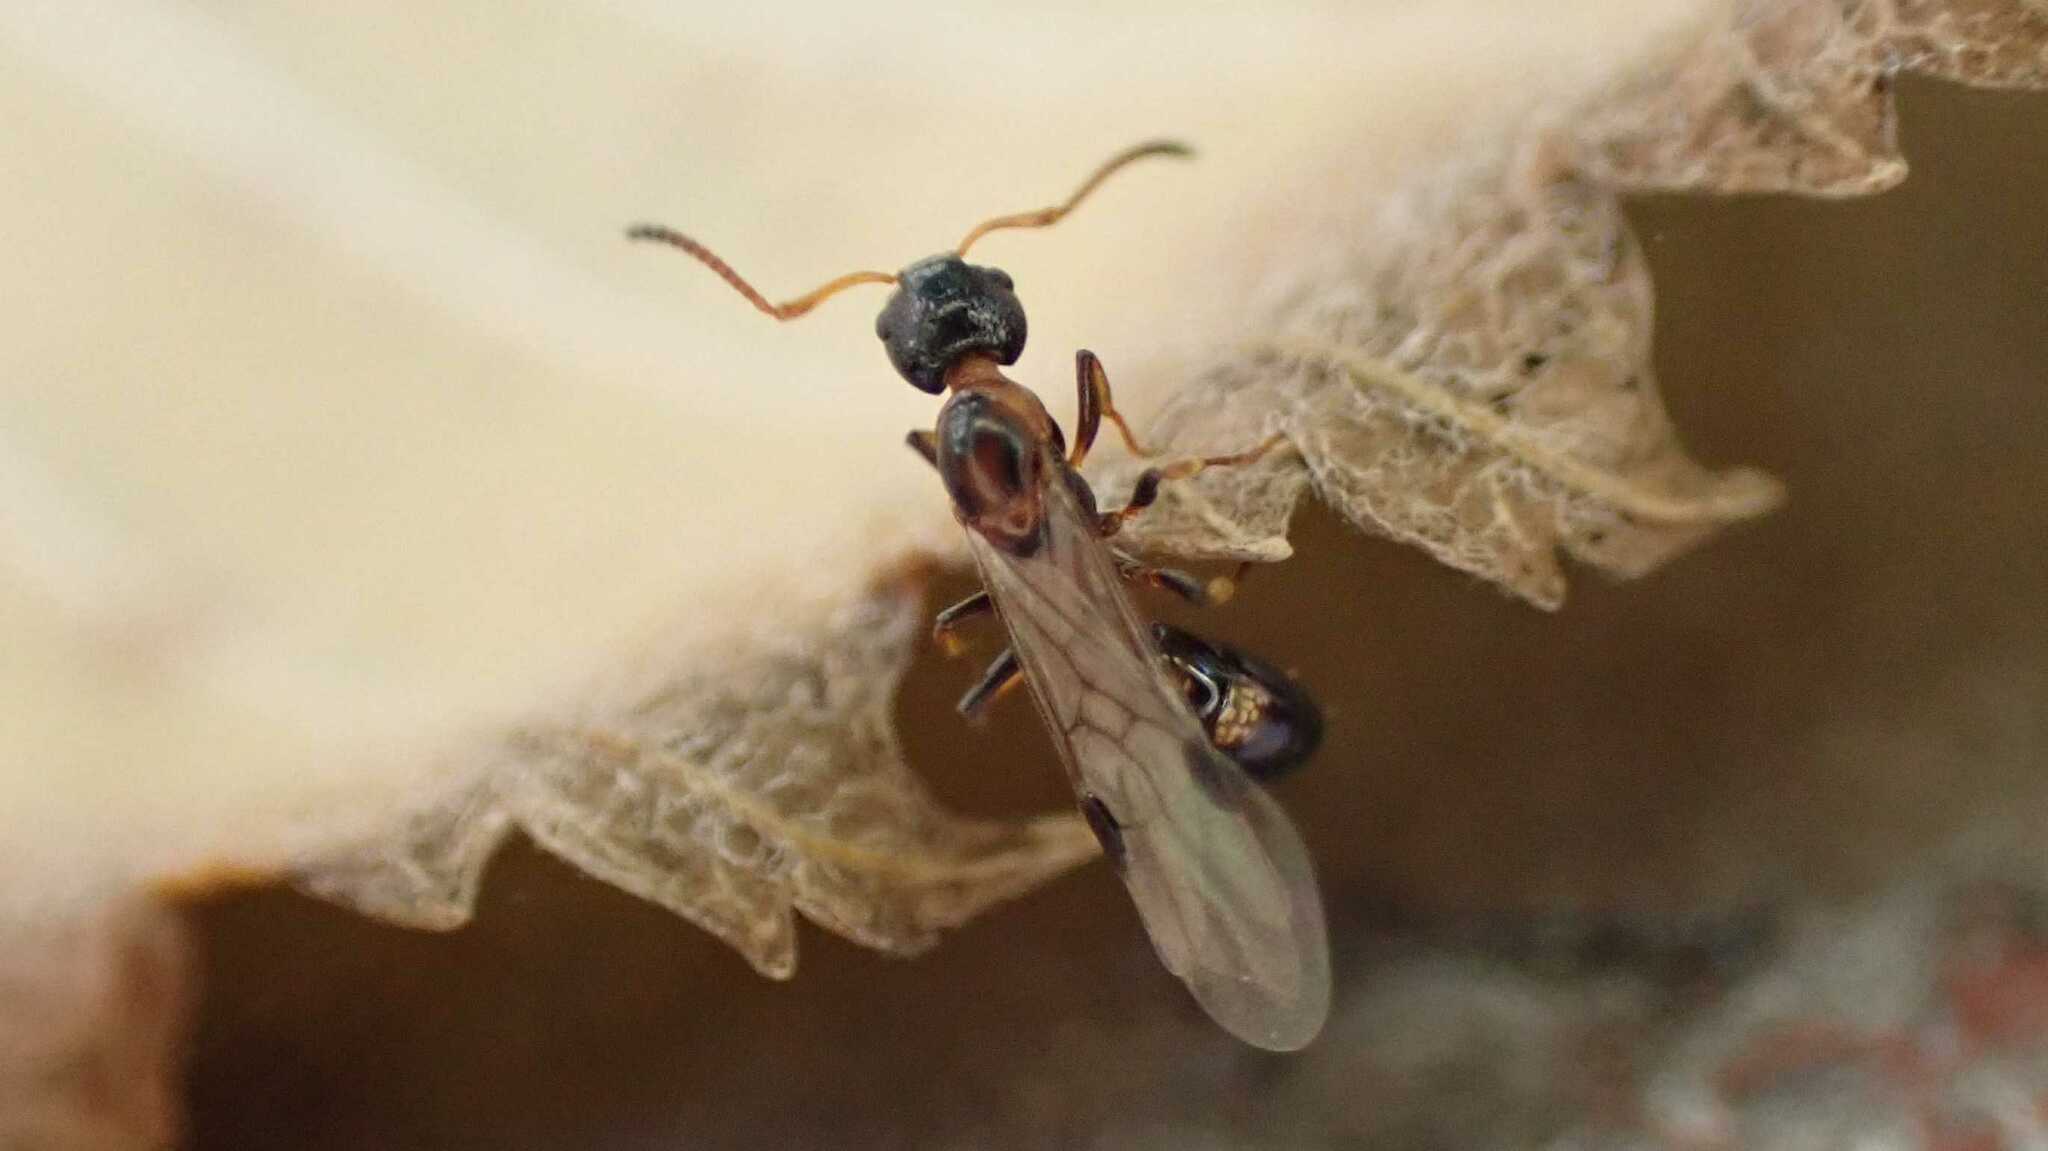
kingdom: Animalia
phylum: Arthropoda
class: Insecta
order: Hymenoptera
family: Formicidae
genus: Dolichoderus
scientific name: Dolichoderus quadripunctatus
